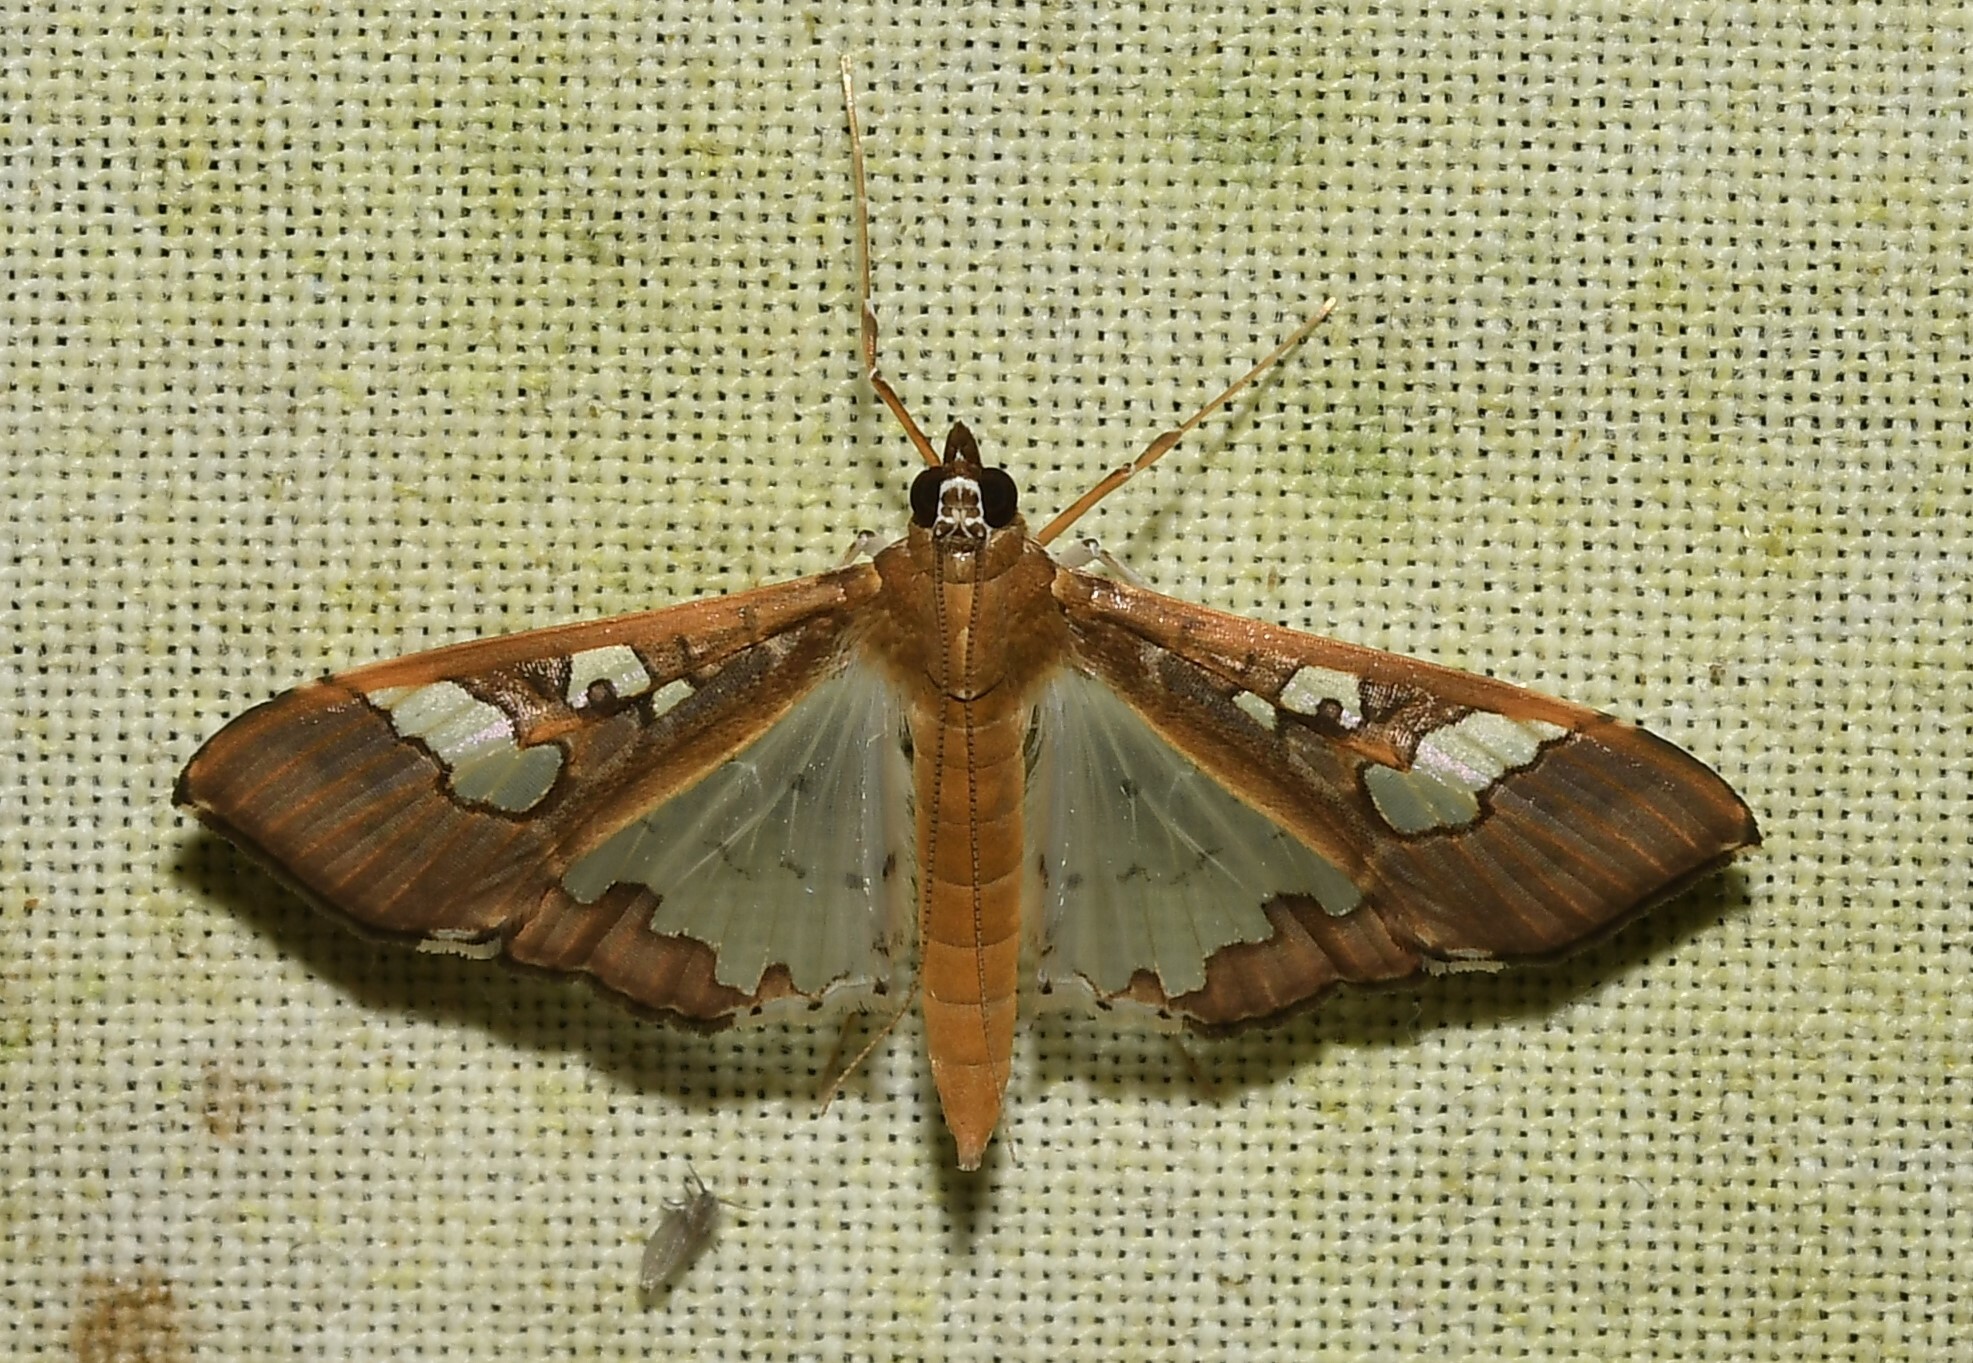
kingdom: Animalia
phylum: Arthropoda
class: Insecta
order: Lepidoptera
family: Crambidae
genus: Maruca
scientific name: Maruca vitrata
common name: Maruca pod borer
